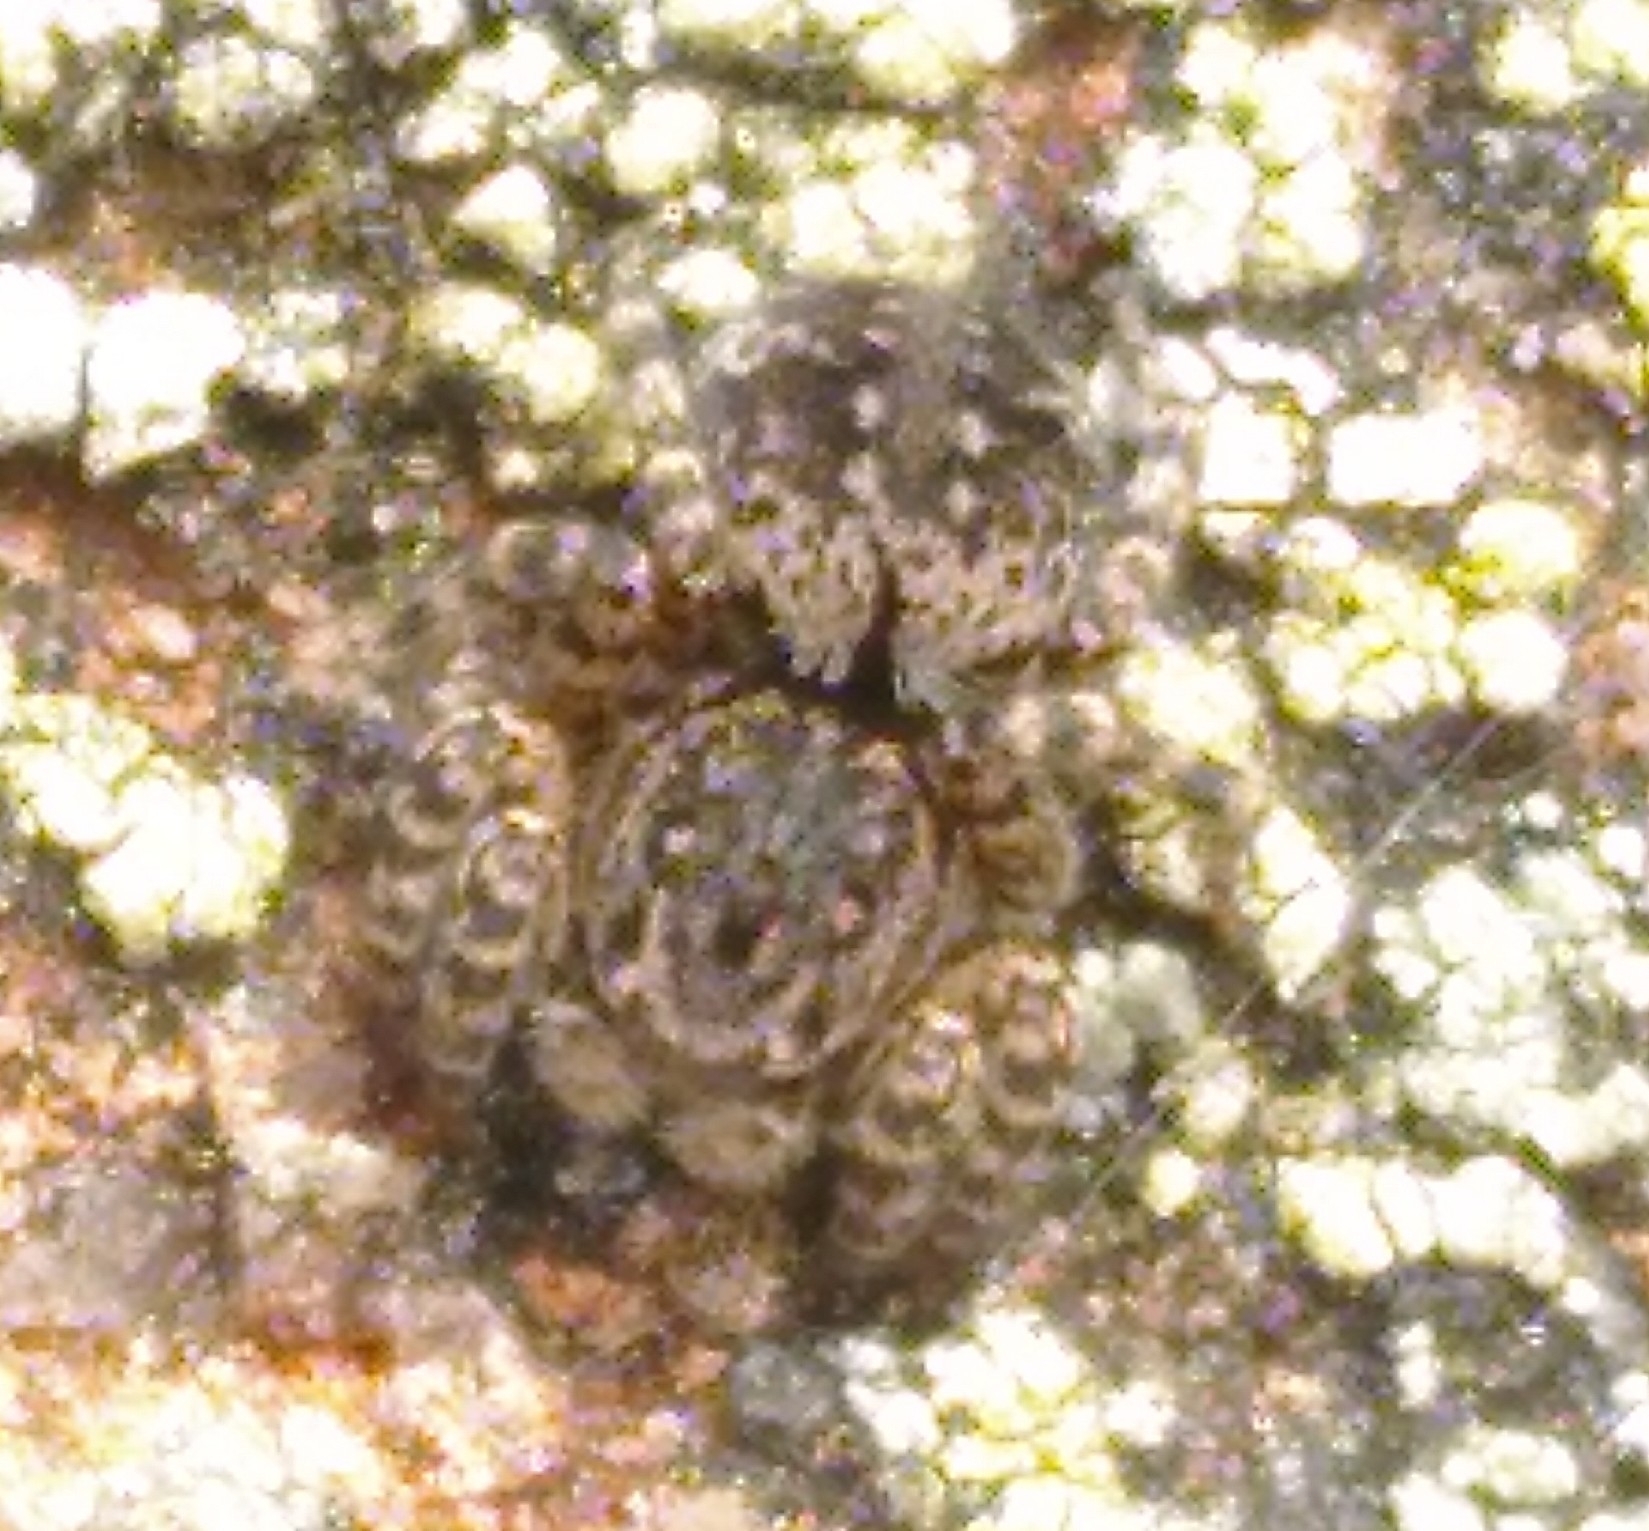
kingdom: Animalia
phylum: Arthropoda
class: Arachnida
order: Araneae
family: Salticidae
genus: Aelurillus
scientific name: Aelurillus v-insignitus
